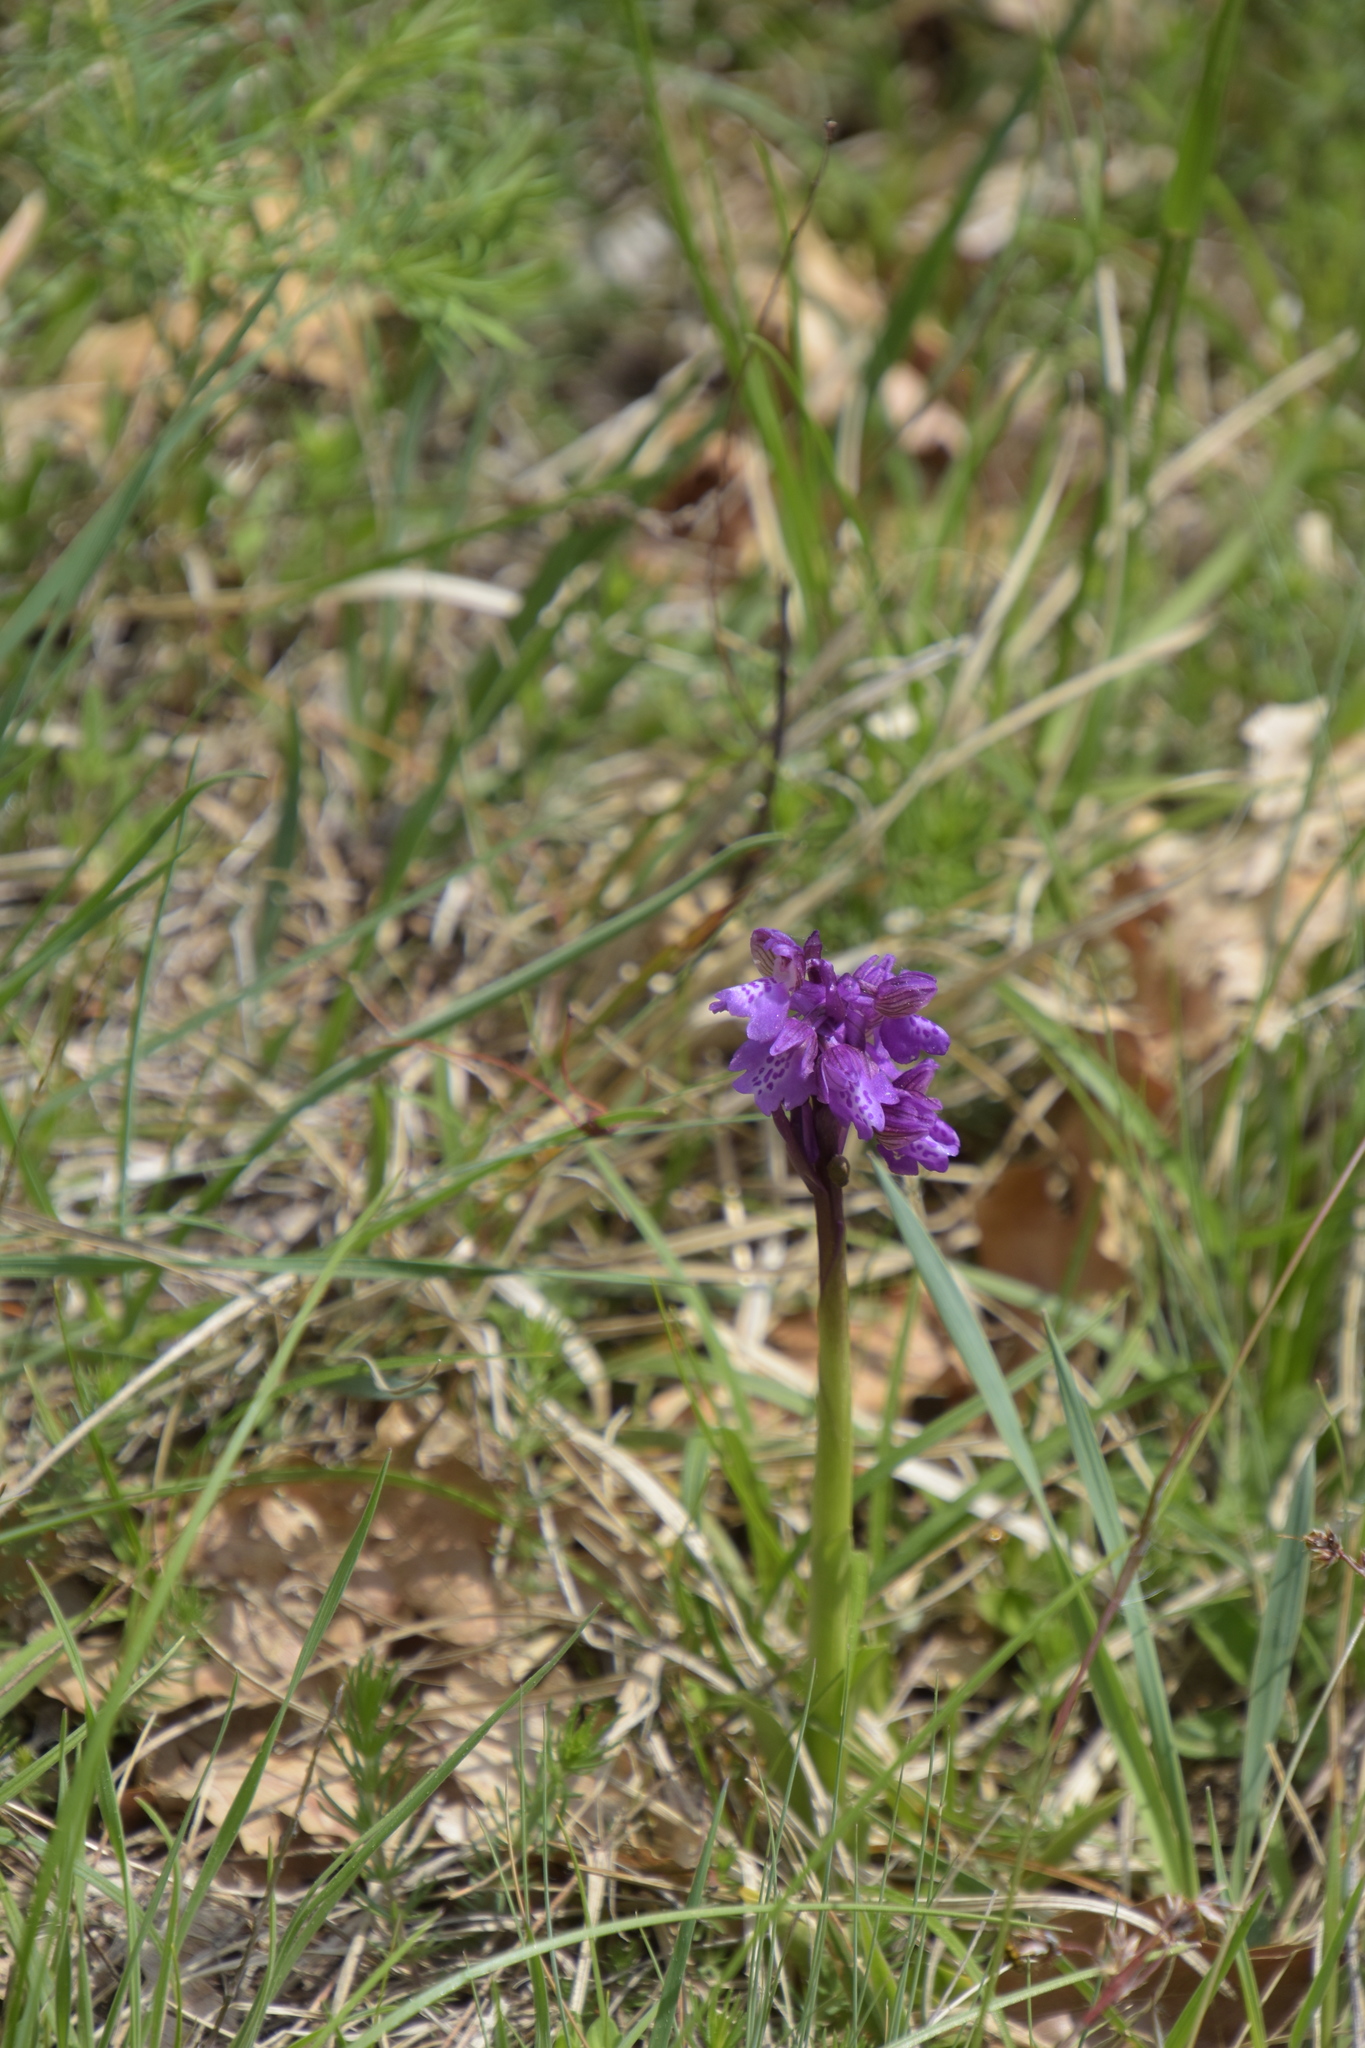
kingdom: Plantae
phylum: Tracheophyta
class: Liliopsida
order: Asparagales
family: Orchidaceae
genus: Anacamptis
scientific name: Anacamptis morio
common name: Green-winged orchid
